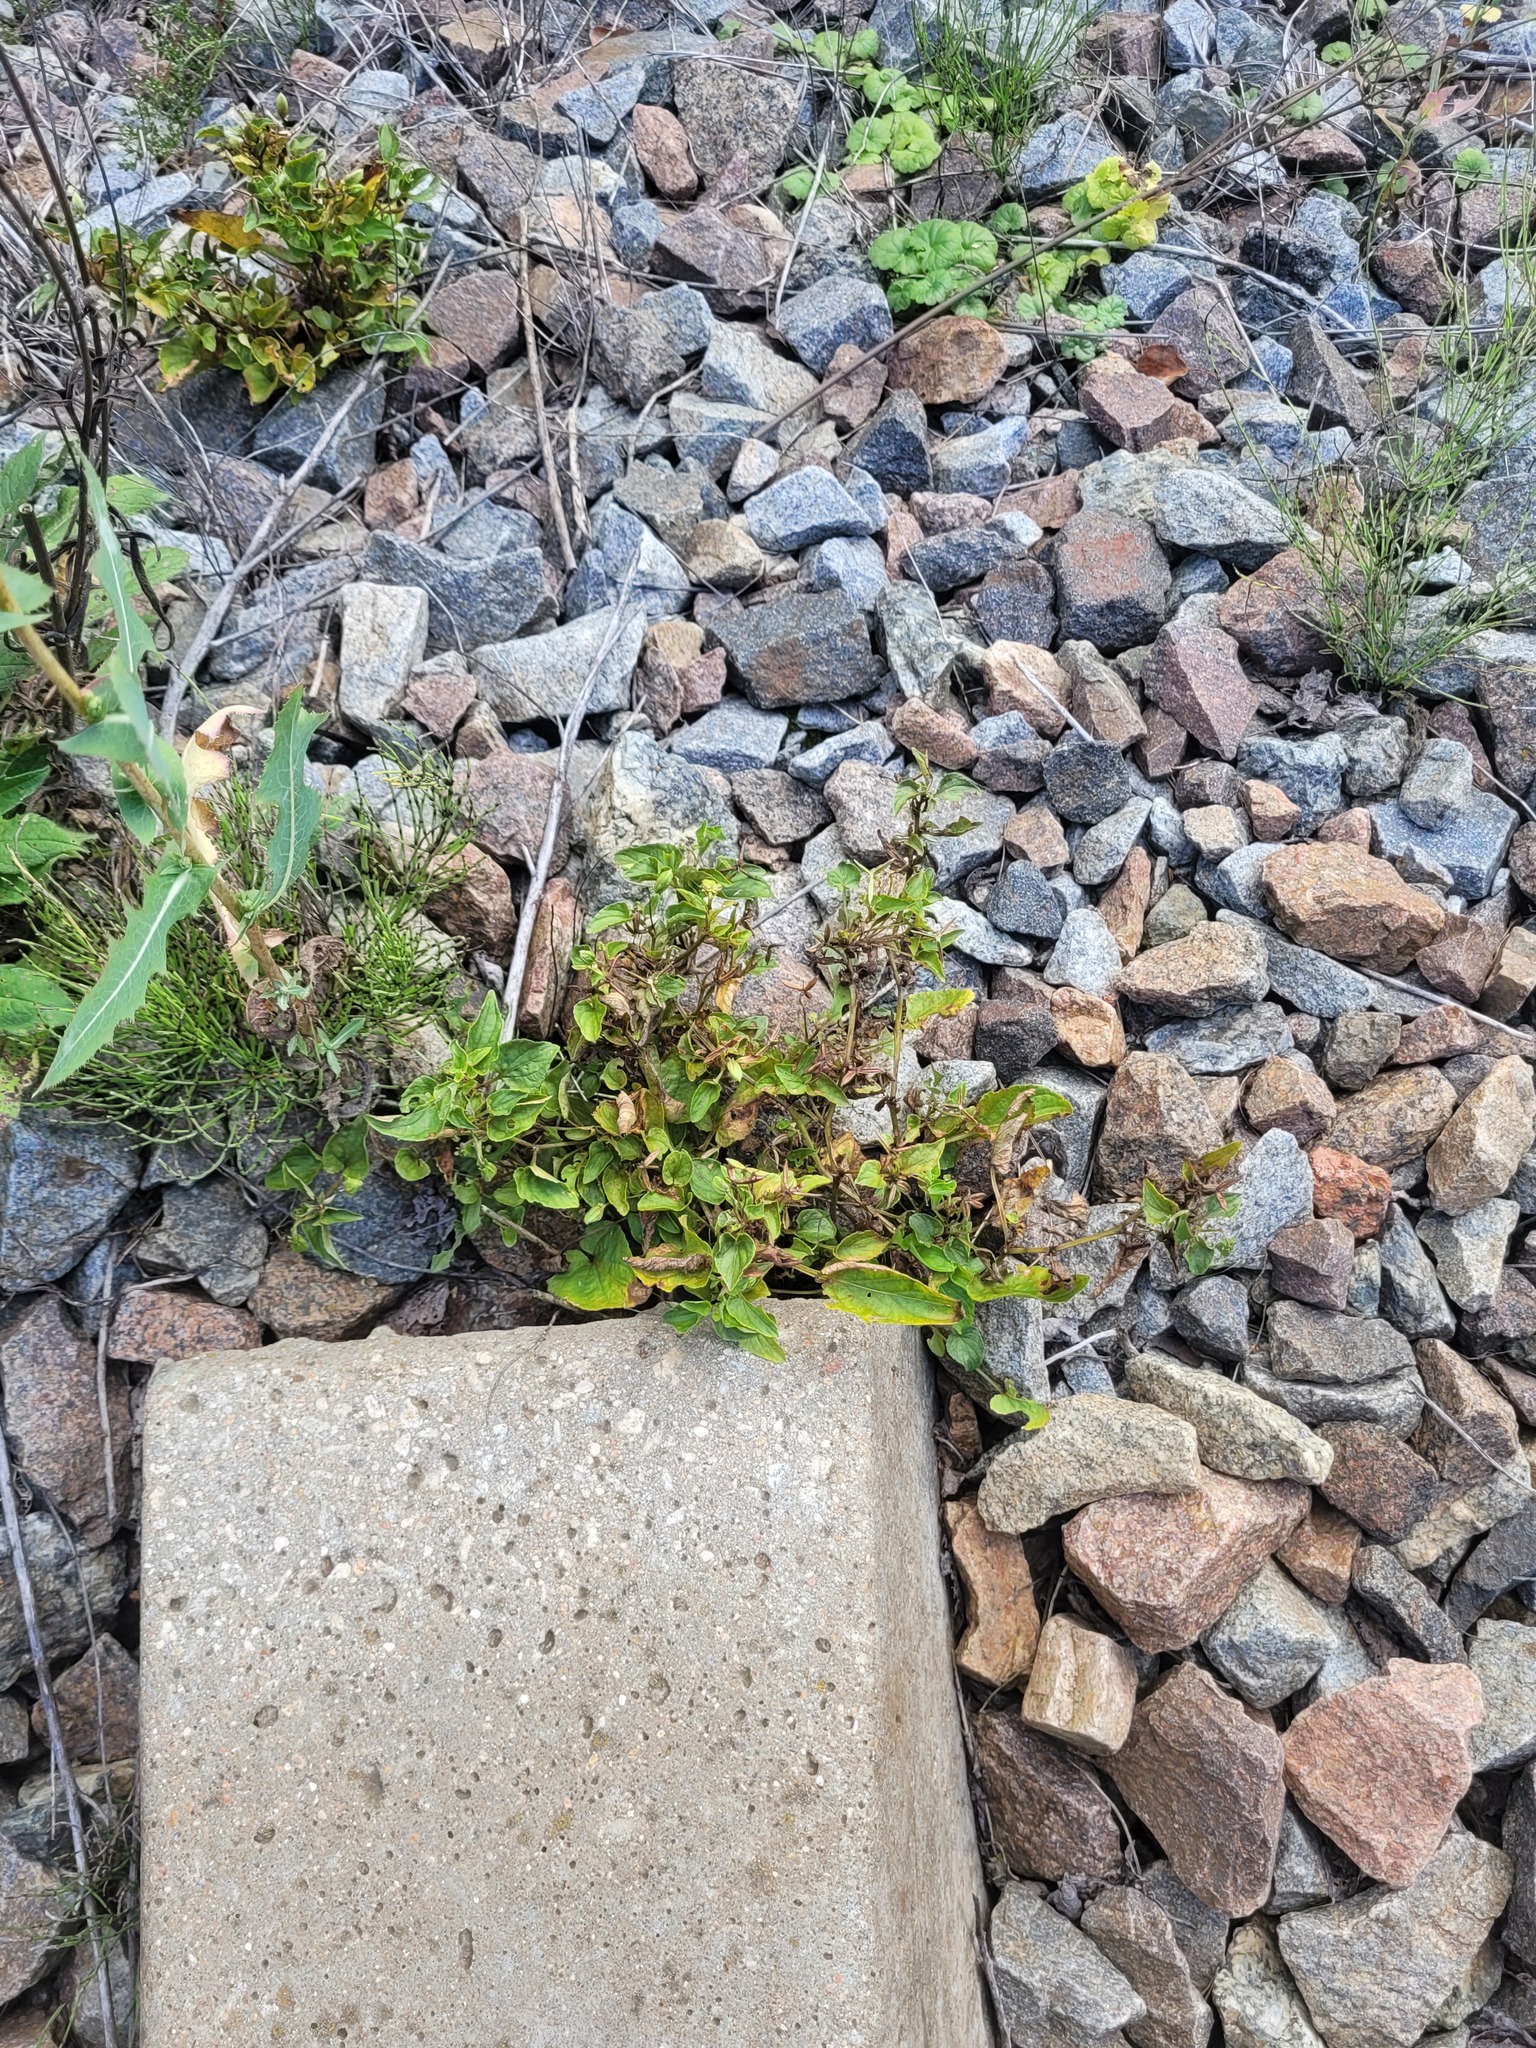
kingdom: Plantae
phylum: Tracheophyta
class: Magnoliopsida
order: Malpighiales
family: Violaceae
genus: Viola
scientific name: Viola canina
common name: Heath dog-violet
